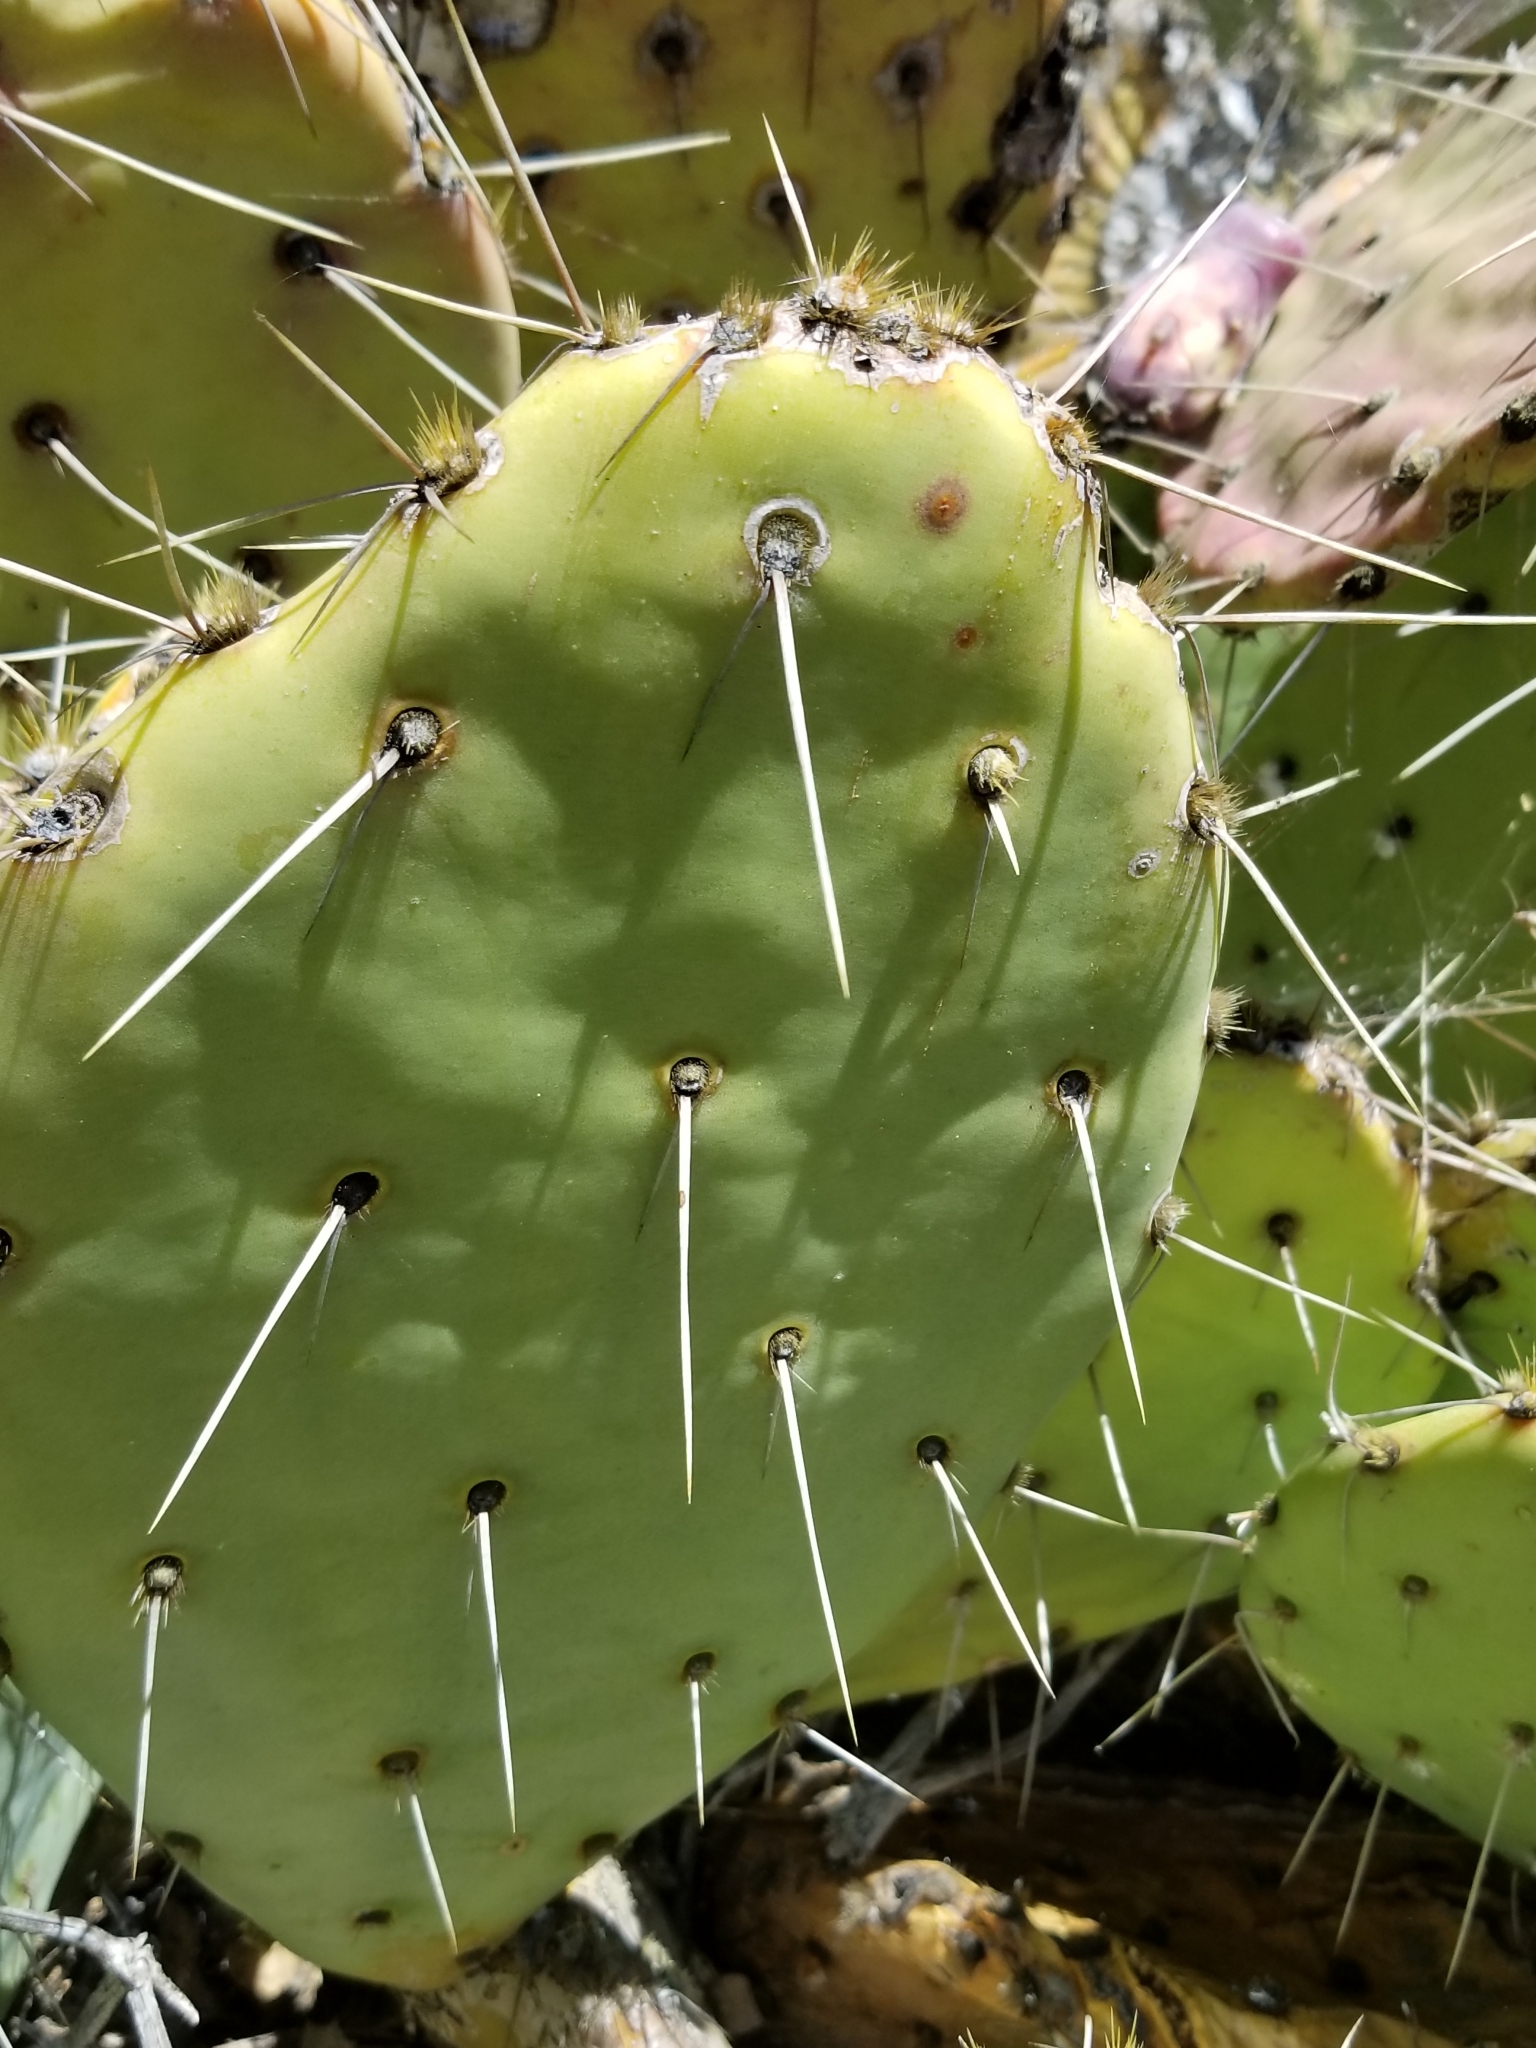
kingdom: Plantae
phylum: Tracheophyta
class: Magnoliopsida
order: Caryophyllales
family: Cactaceae
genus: Opuntia
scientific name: Opuntia phaeacantha
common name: New mexico prickly-pear
